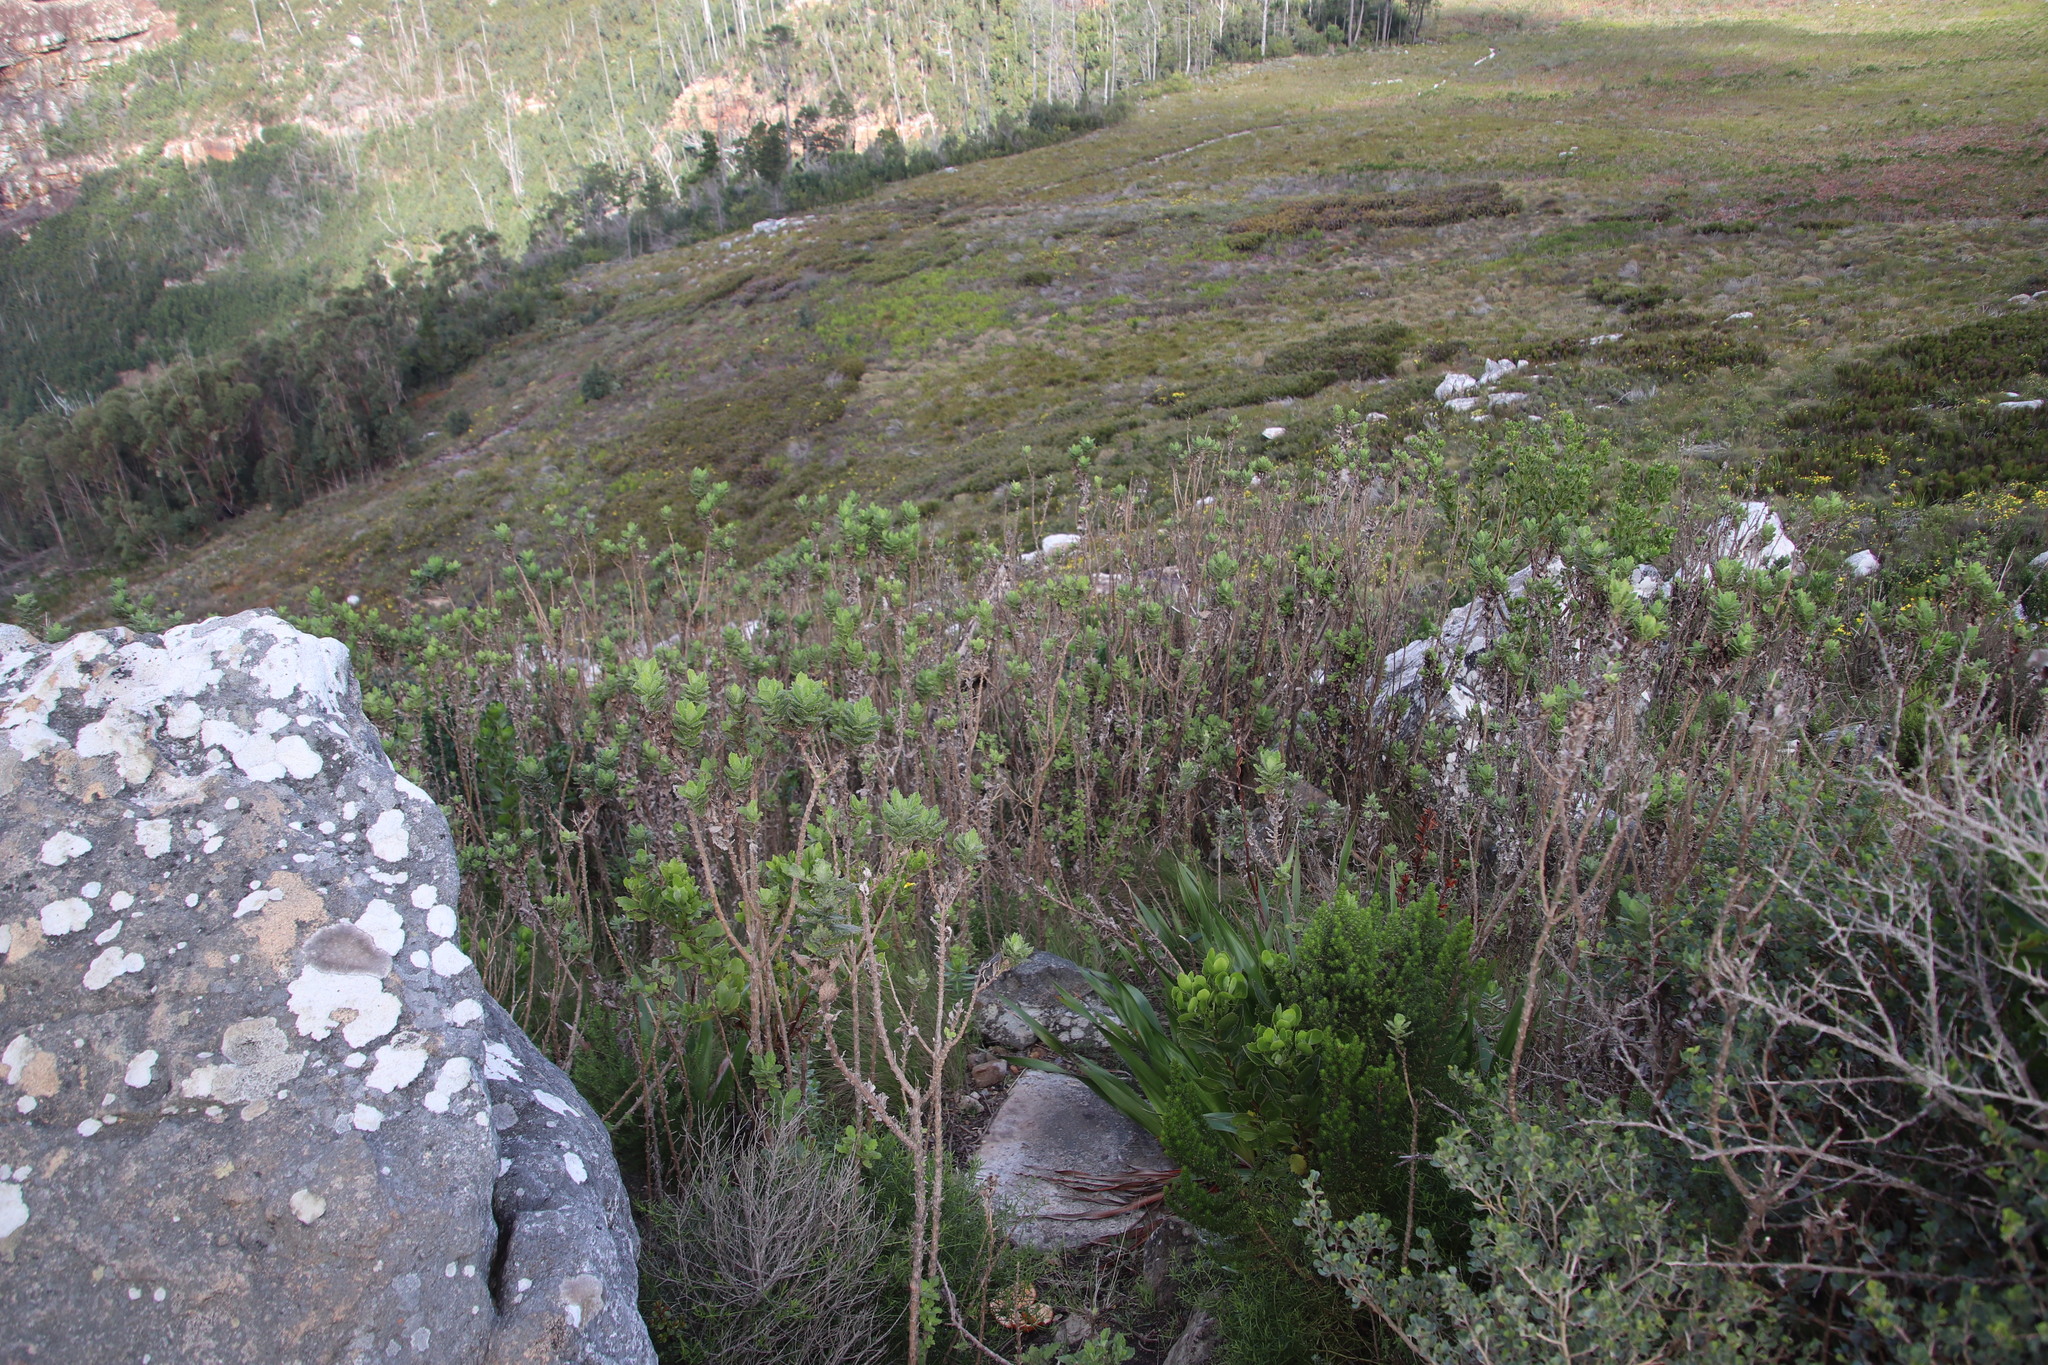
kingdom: Plantae
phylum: Tracheophyta
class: Magnoliopsida
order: Asterales
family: Asteraceae
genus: Senecio
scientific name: Senecio rigidus
